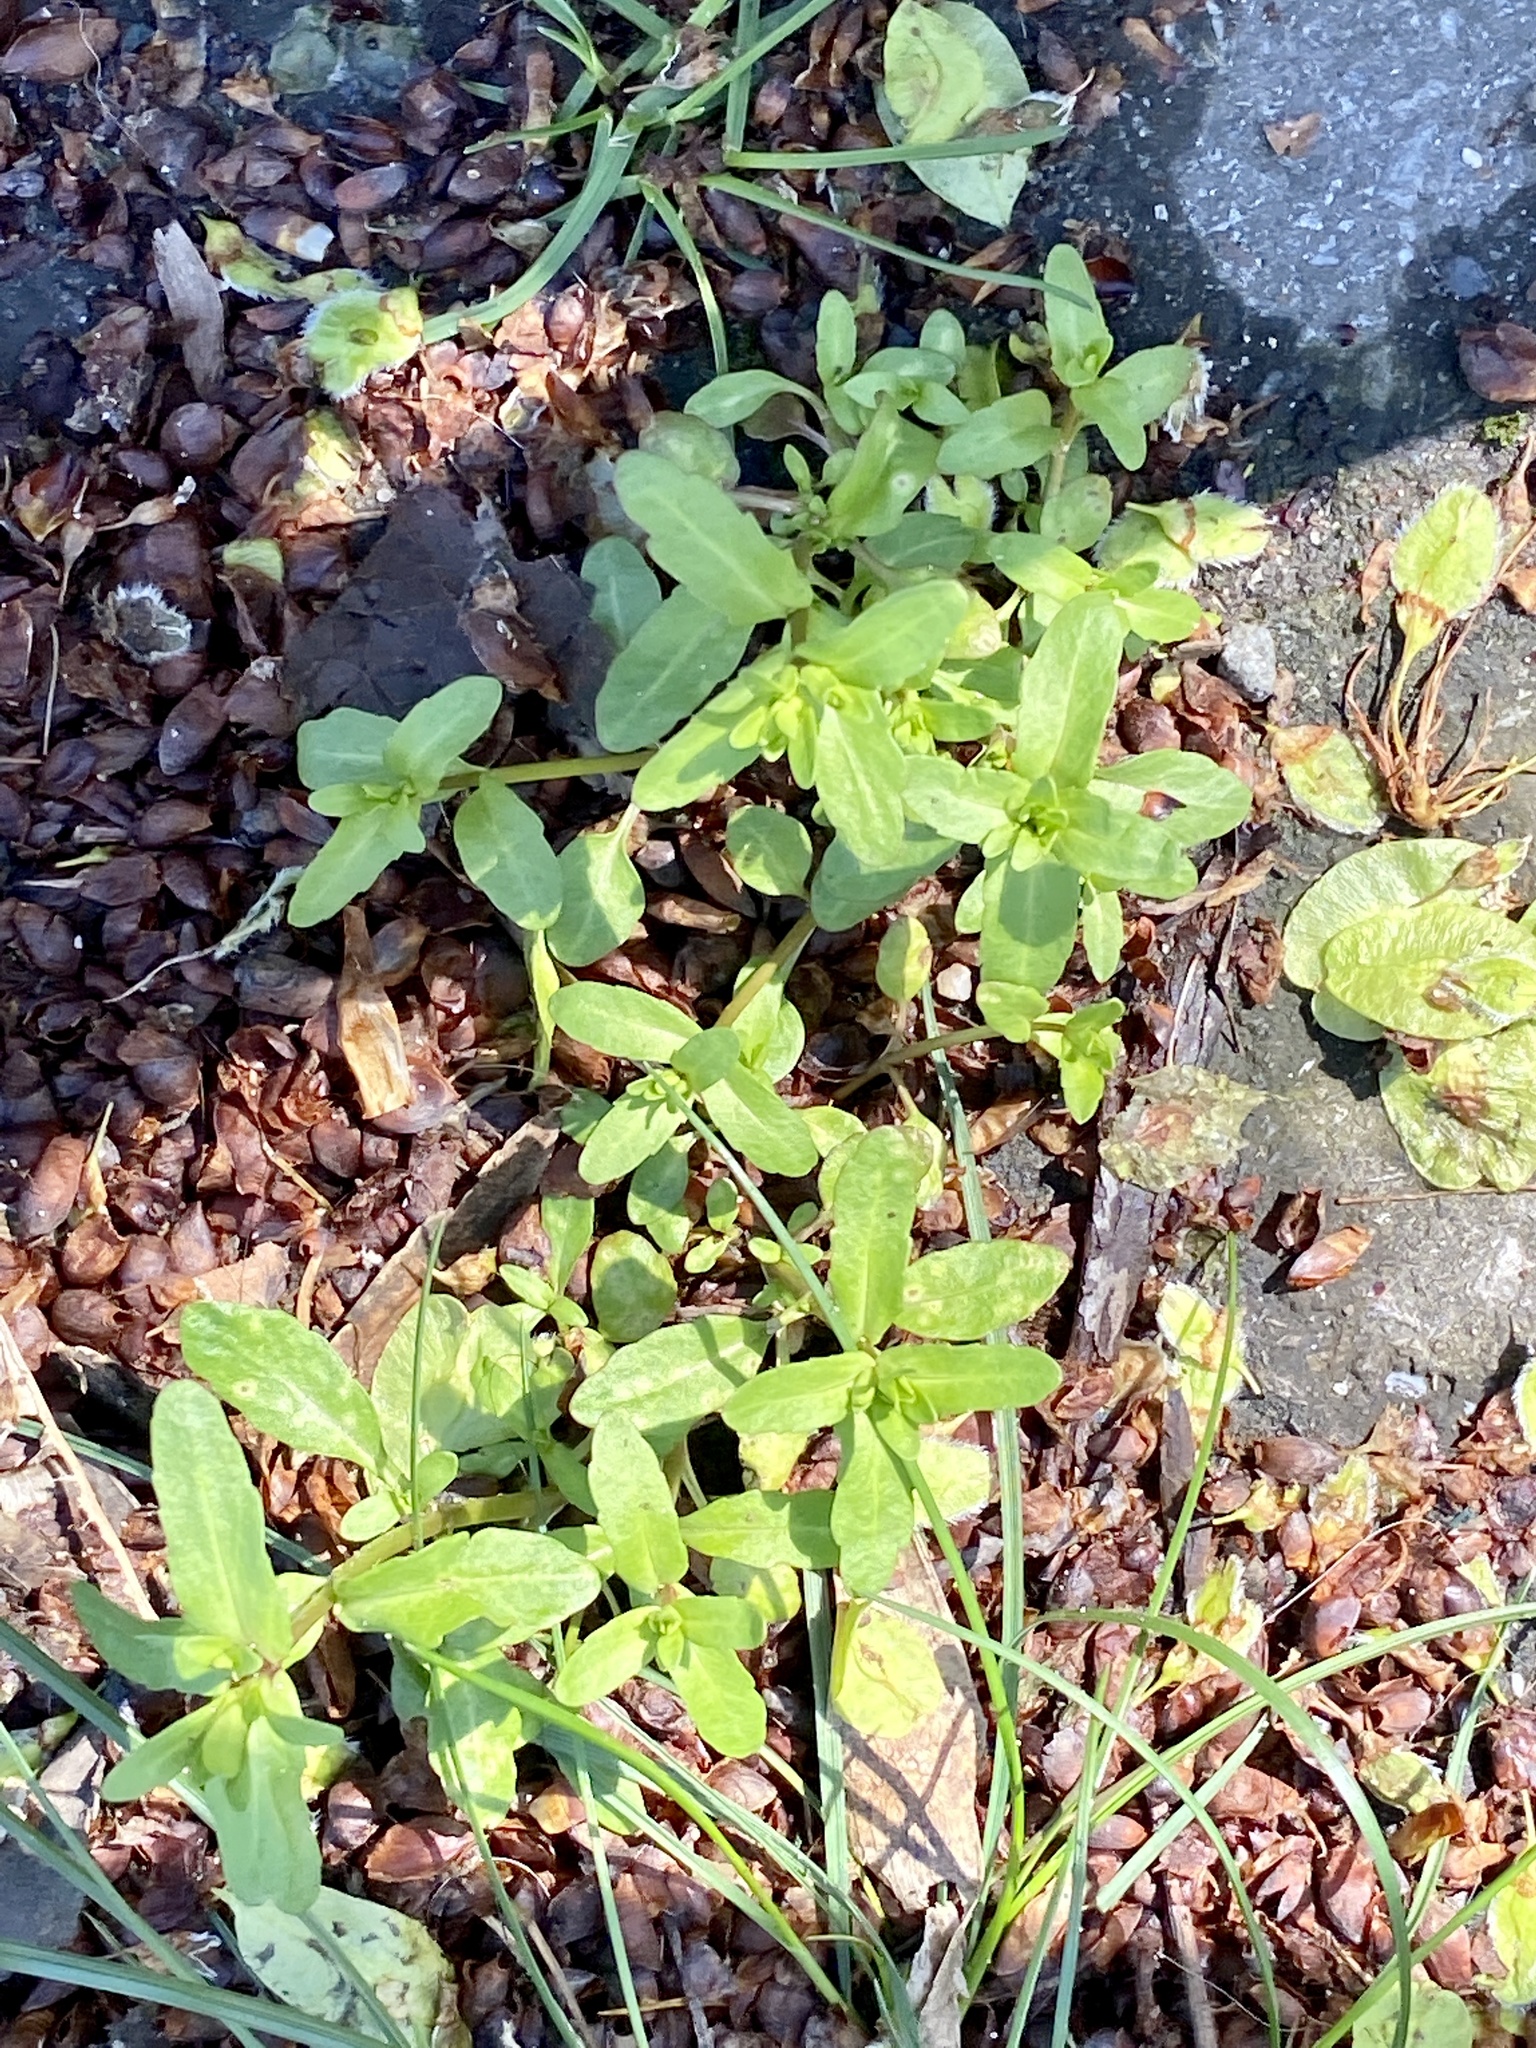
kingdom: Plantae
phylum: Tracheophyta
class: Magnoliopsida
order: Lamiales
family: Plantaginaceae
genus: Veronica
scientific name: Veronica peregrina
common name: Neckweed
